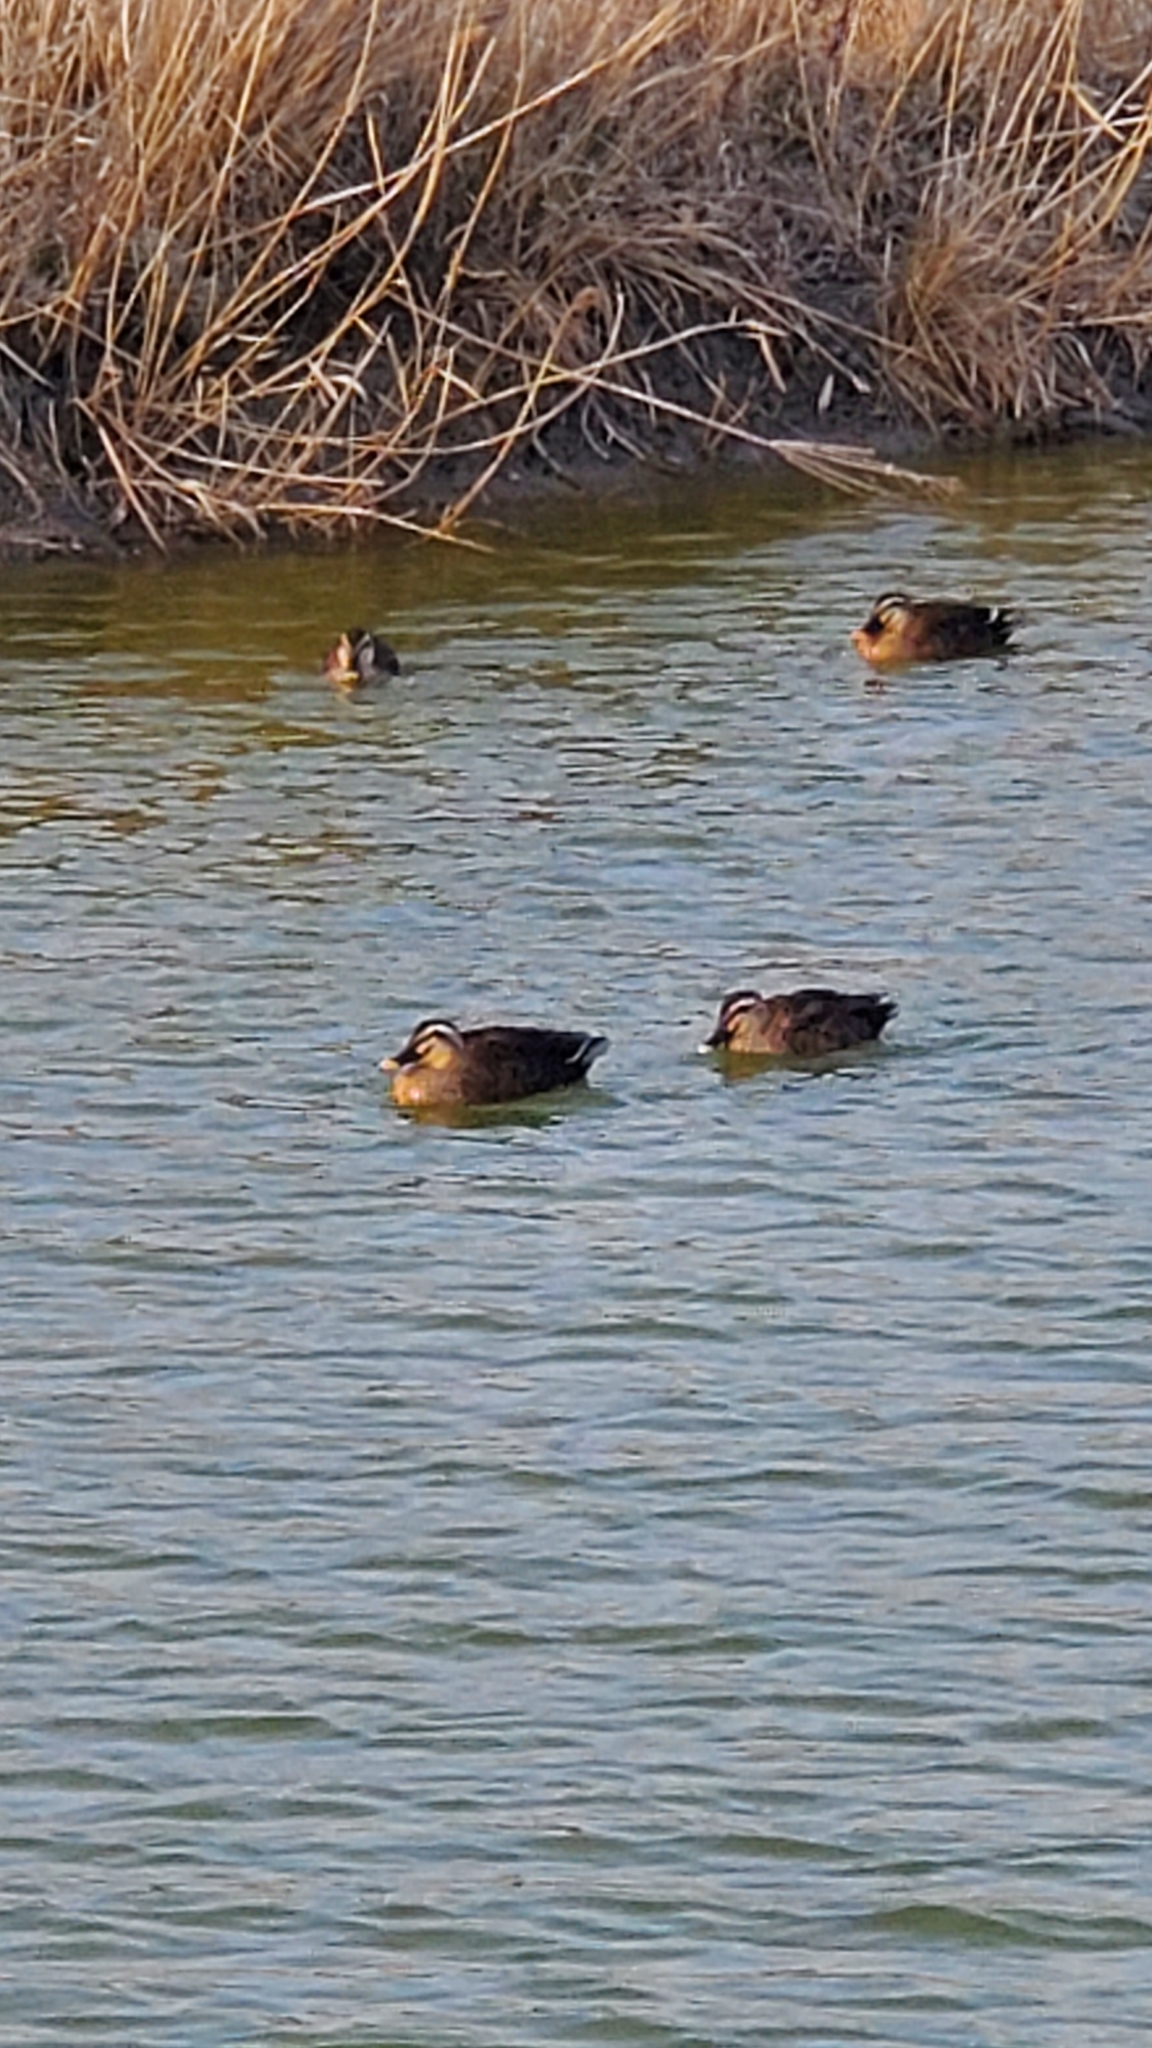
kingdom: Animalia
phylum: Chordata
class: Aves
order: Anseriformes
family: Anatidae
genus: Anas
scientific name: Anas zonorhyncha
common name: Eastern spot-billed duck
